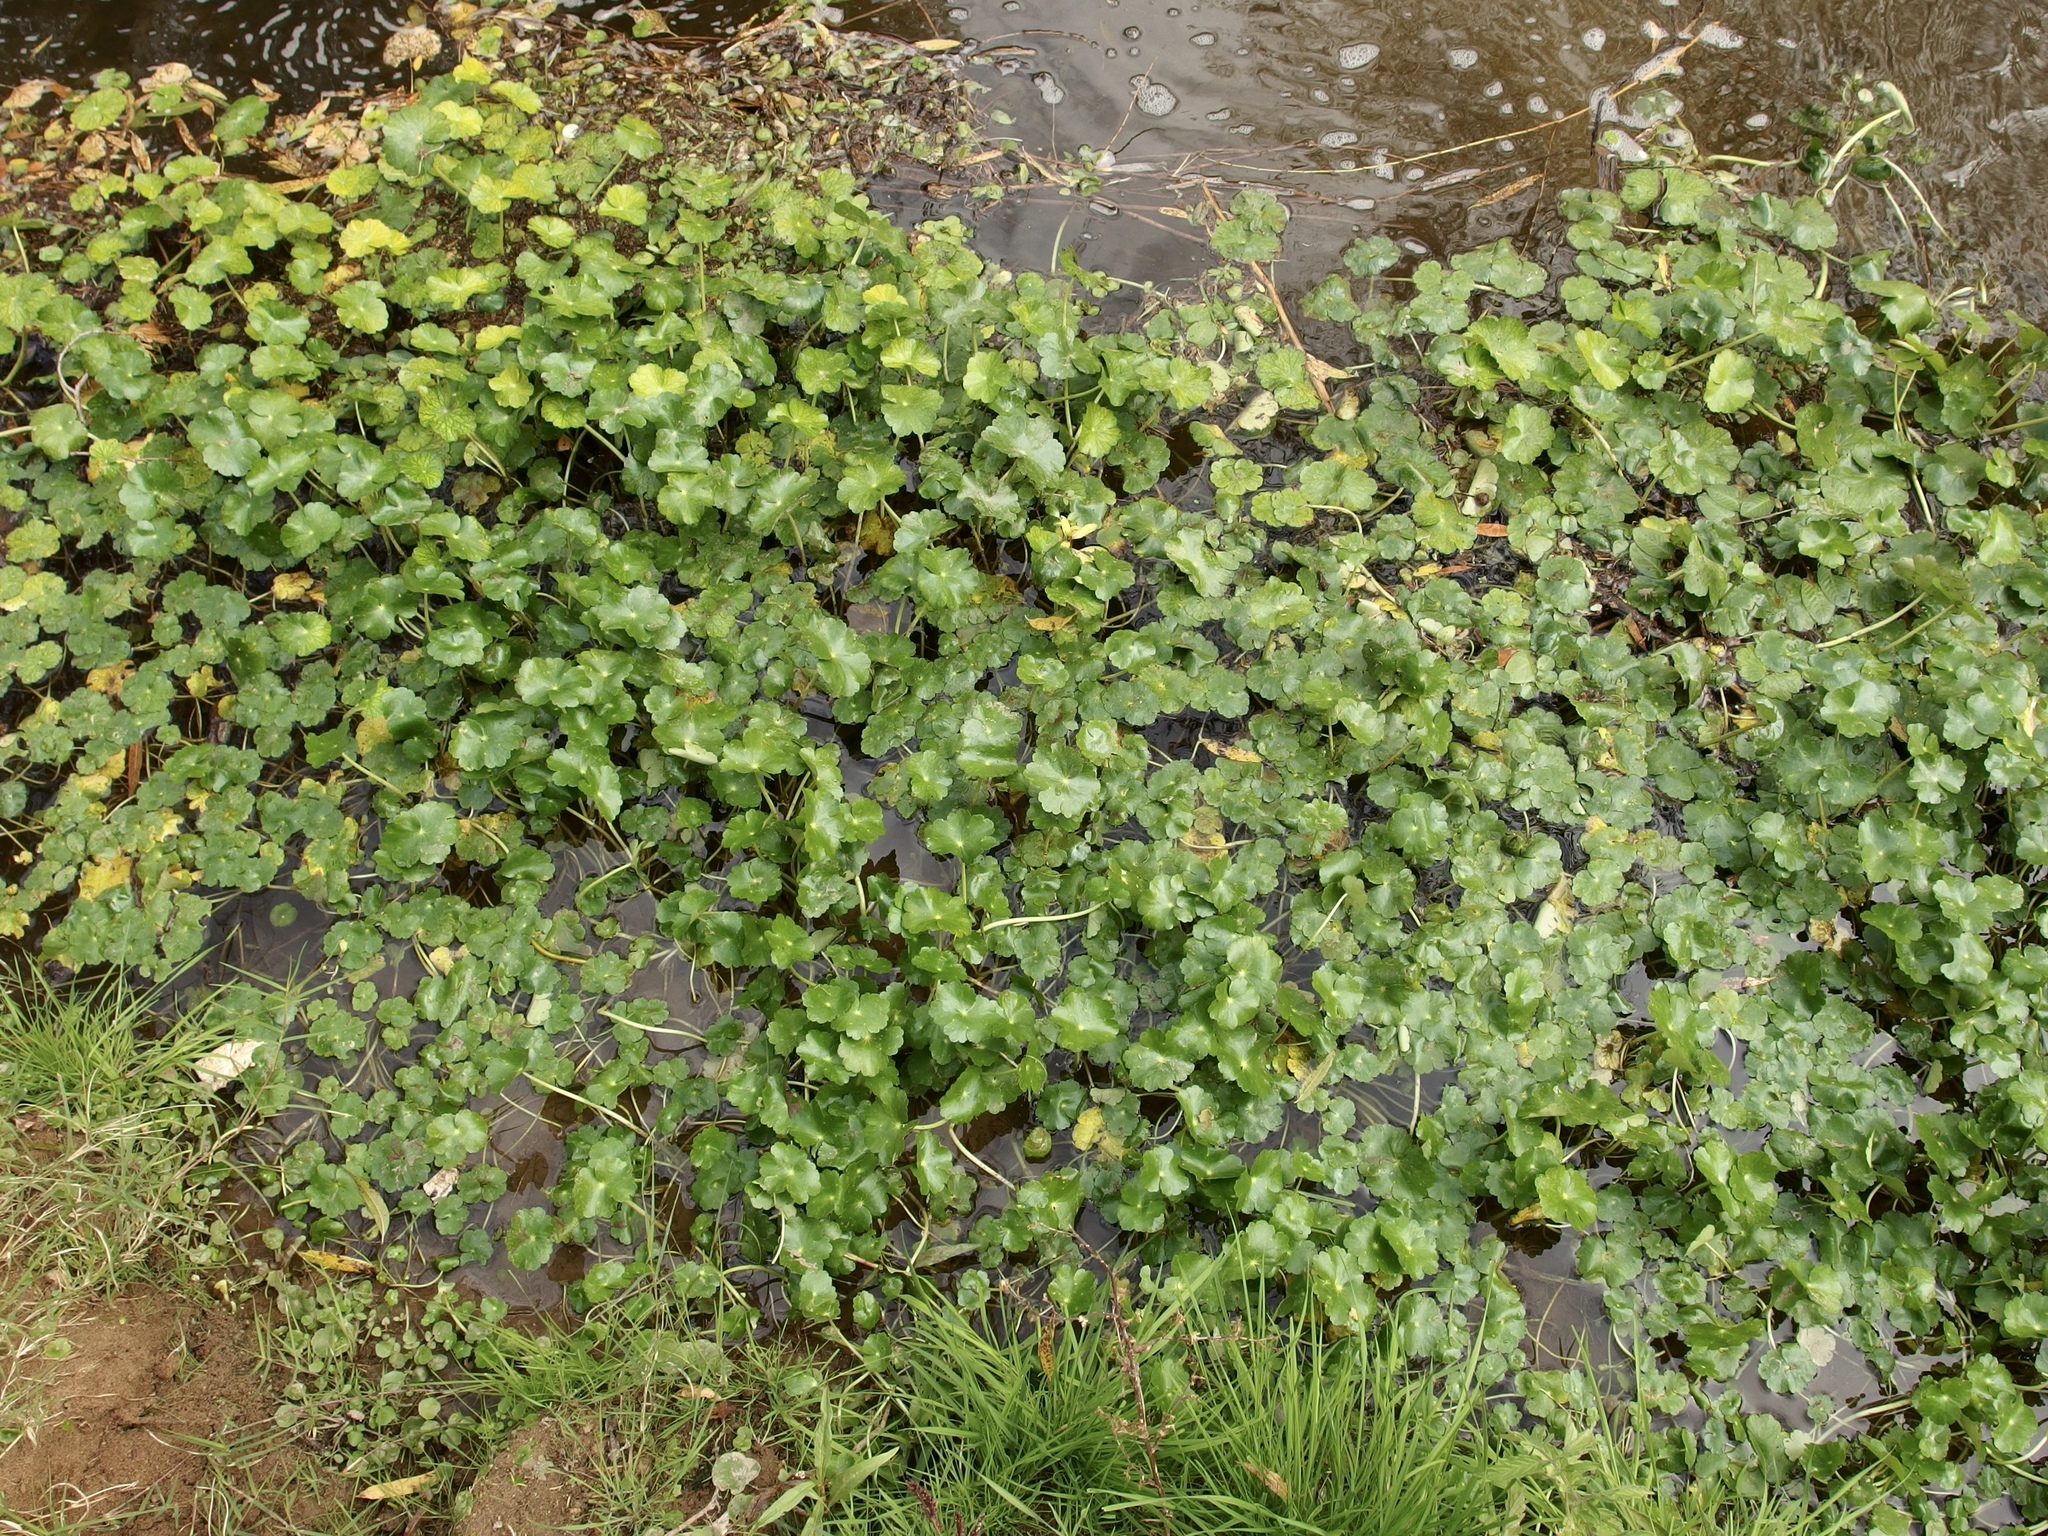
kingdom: Plantae
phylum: Tracheophyta
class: Magnoliopsida
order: Apiales
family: Araliaceae
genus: Hydrocotyle
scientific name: Hydrocotyle ranunculoides
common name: Floating pennywort
